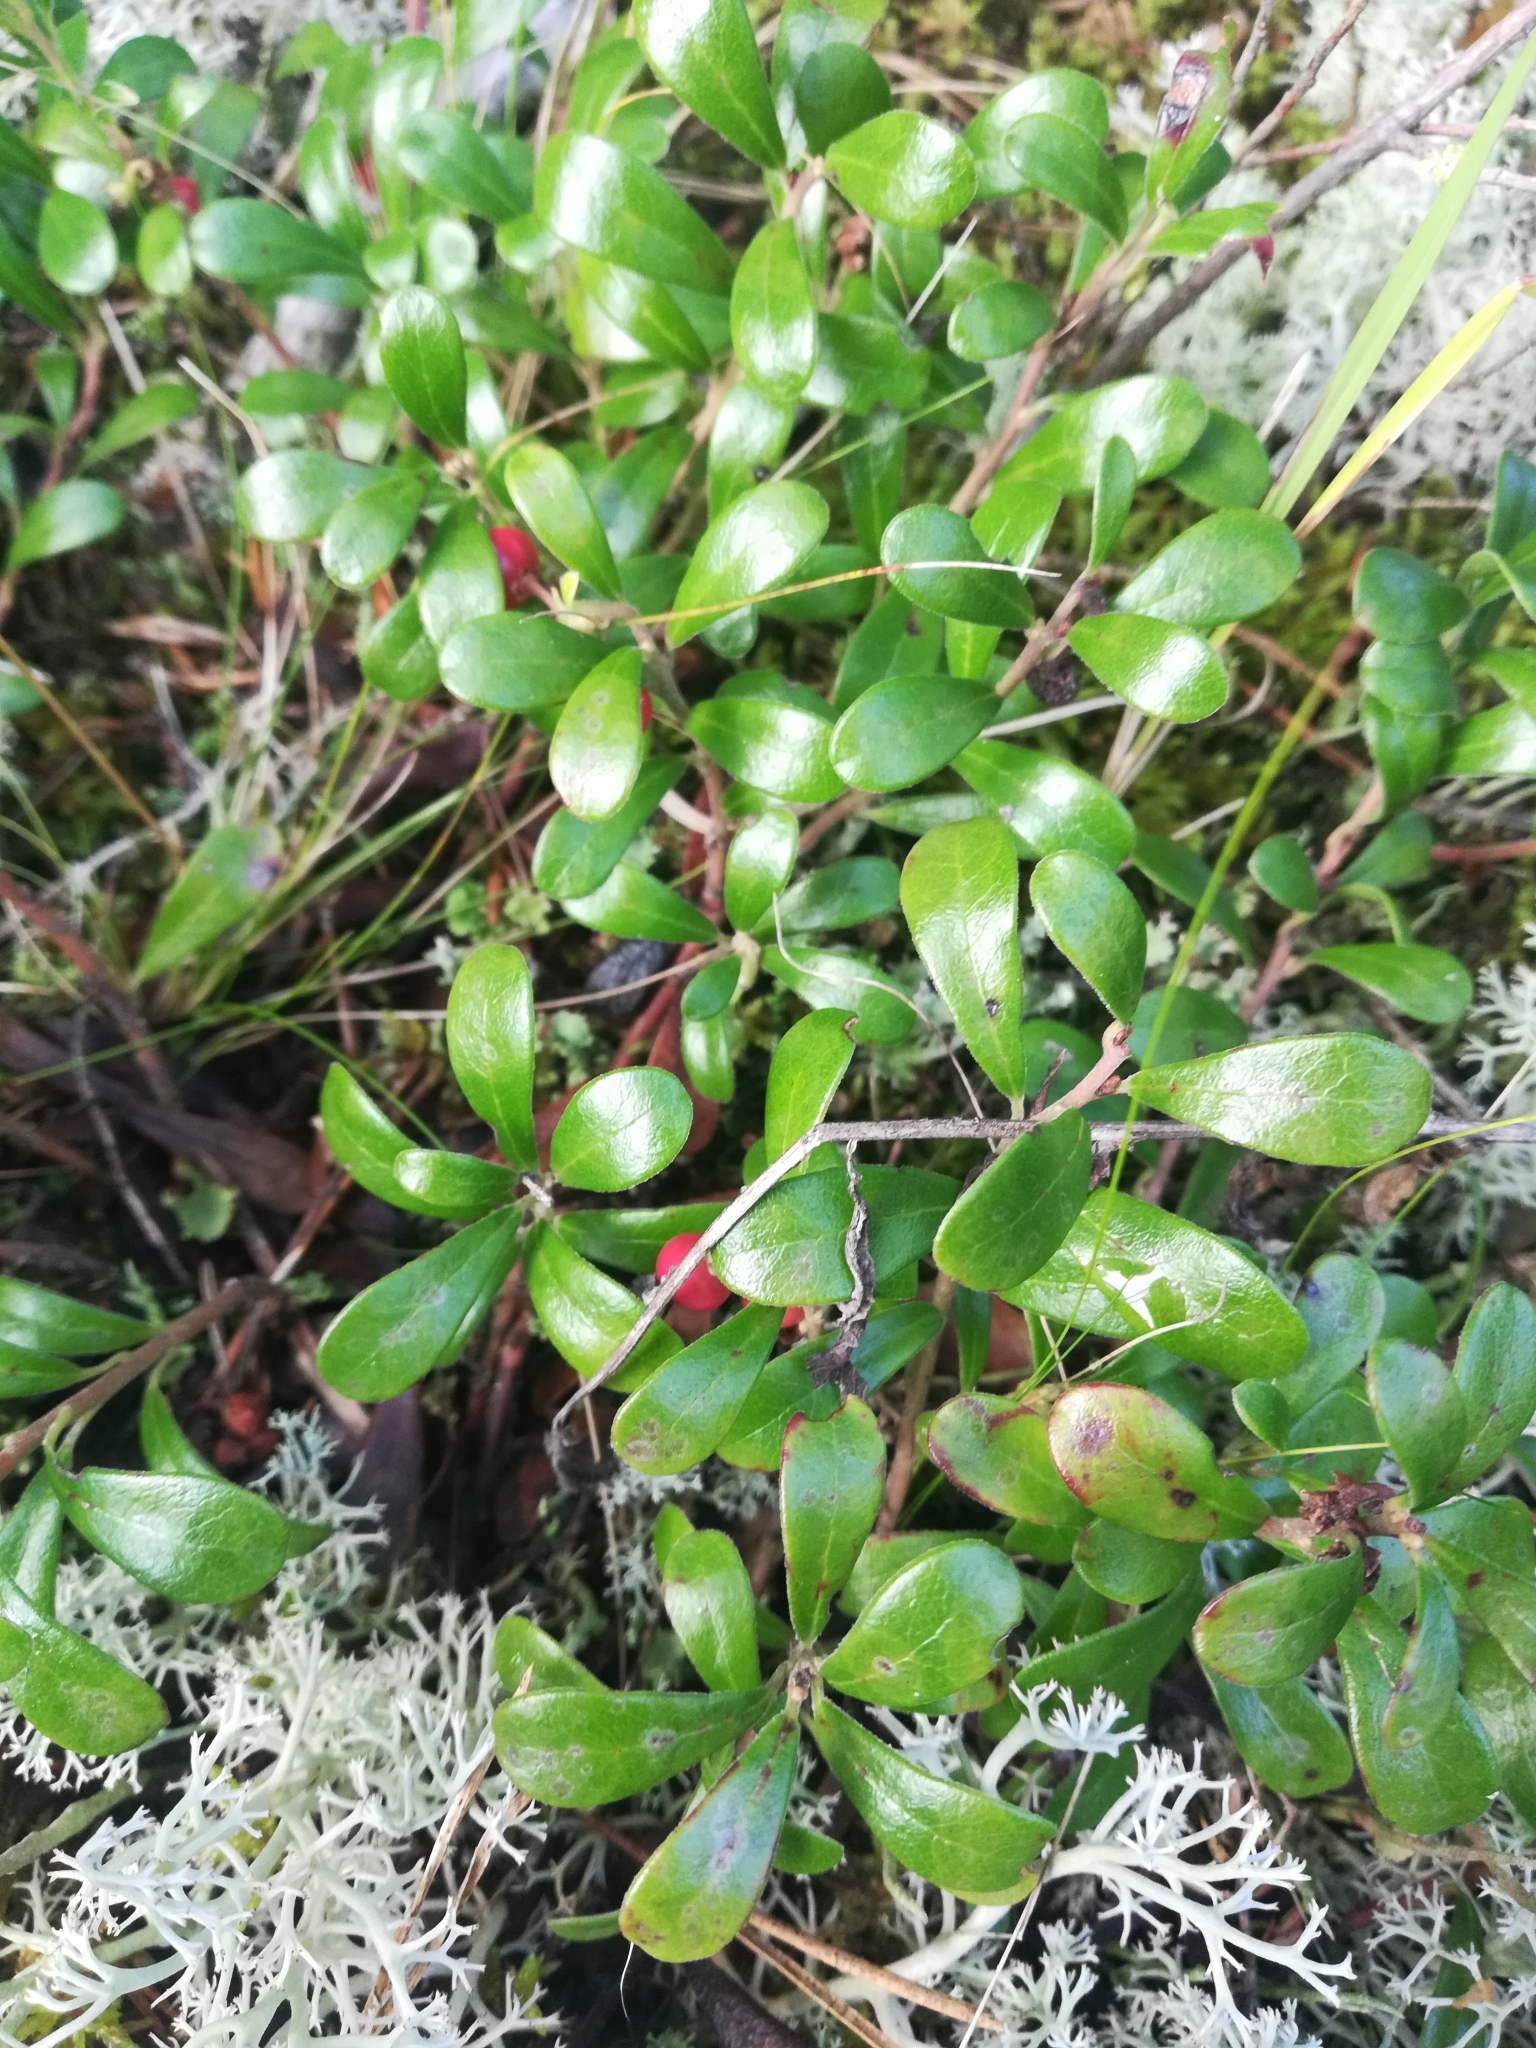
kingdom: Plantae
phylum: Tracheophyta
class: Magnoliopsida
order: Ericales
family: Ericaceae
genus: Arctostaphylos
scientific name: Arctostaphylos uva-ursi
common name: Bearberry
